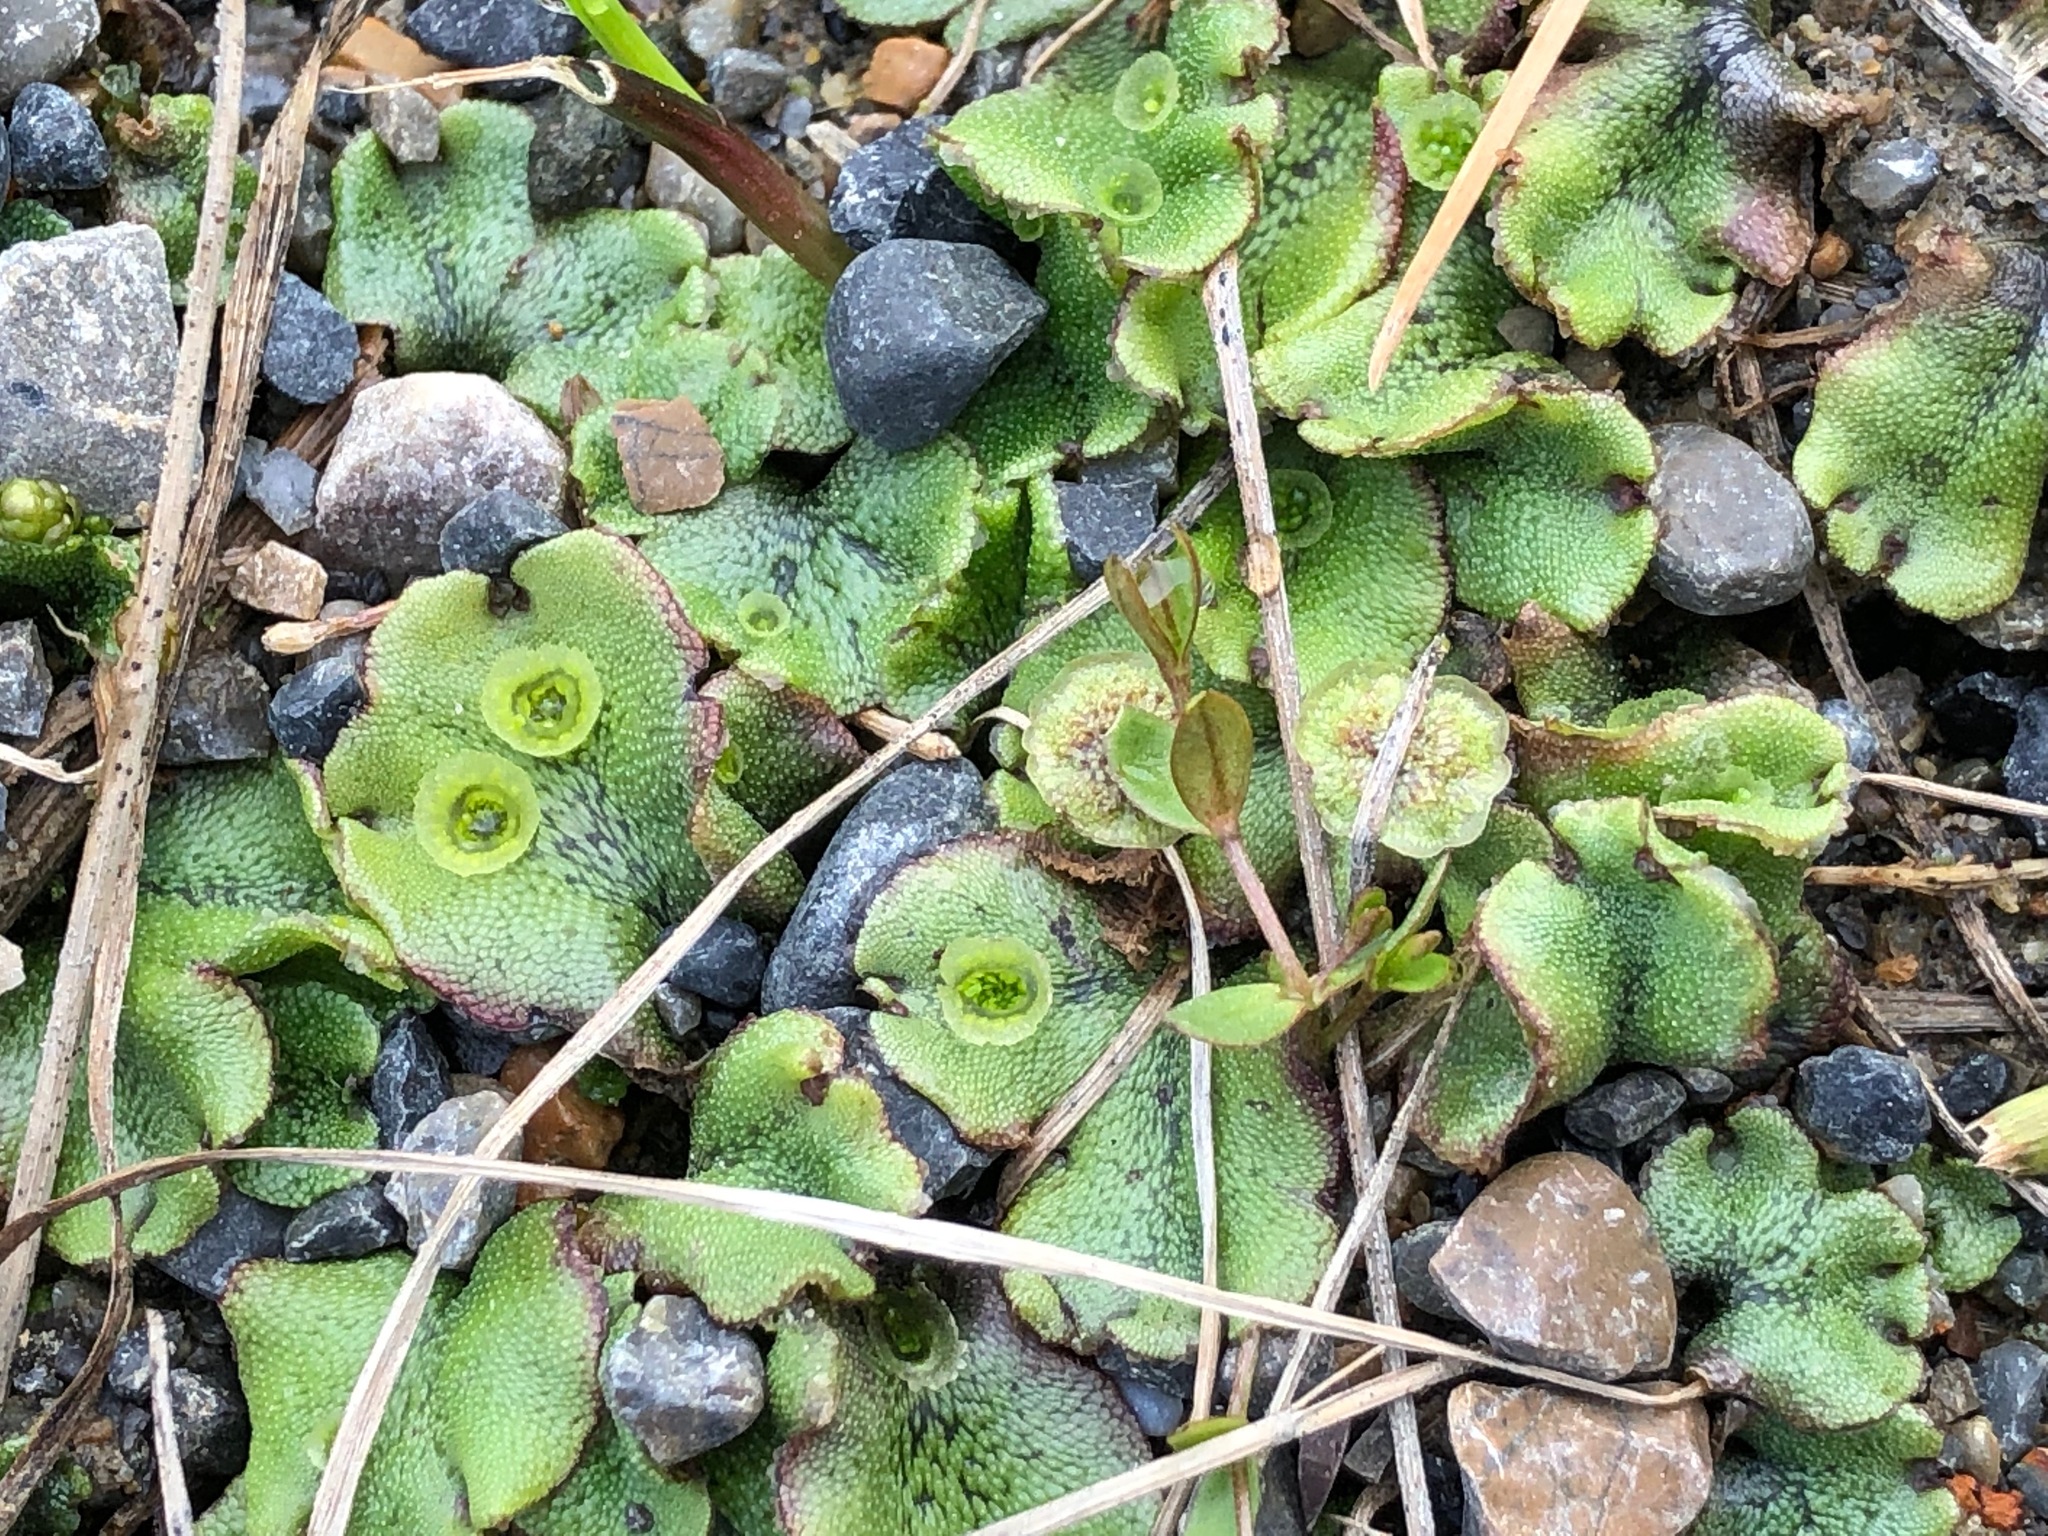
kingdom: Plantae
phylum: Marchantiophyta
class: Marchantiopsida
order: Marchantiales
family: Marchantiaceae
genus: Marchantia
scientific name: Marchantia polymorpha
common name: Common liverwort
